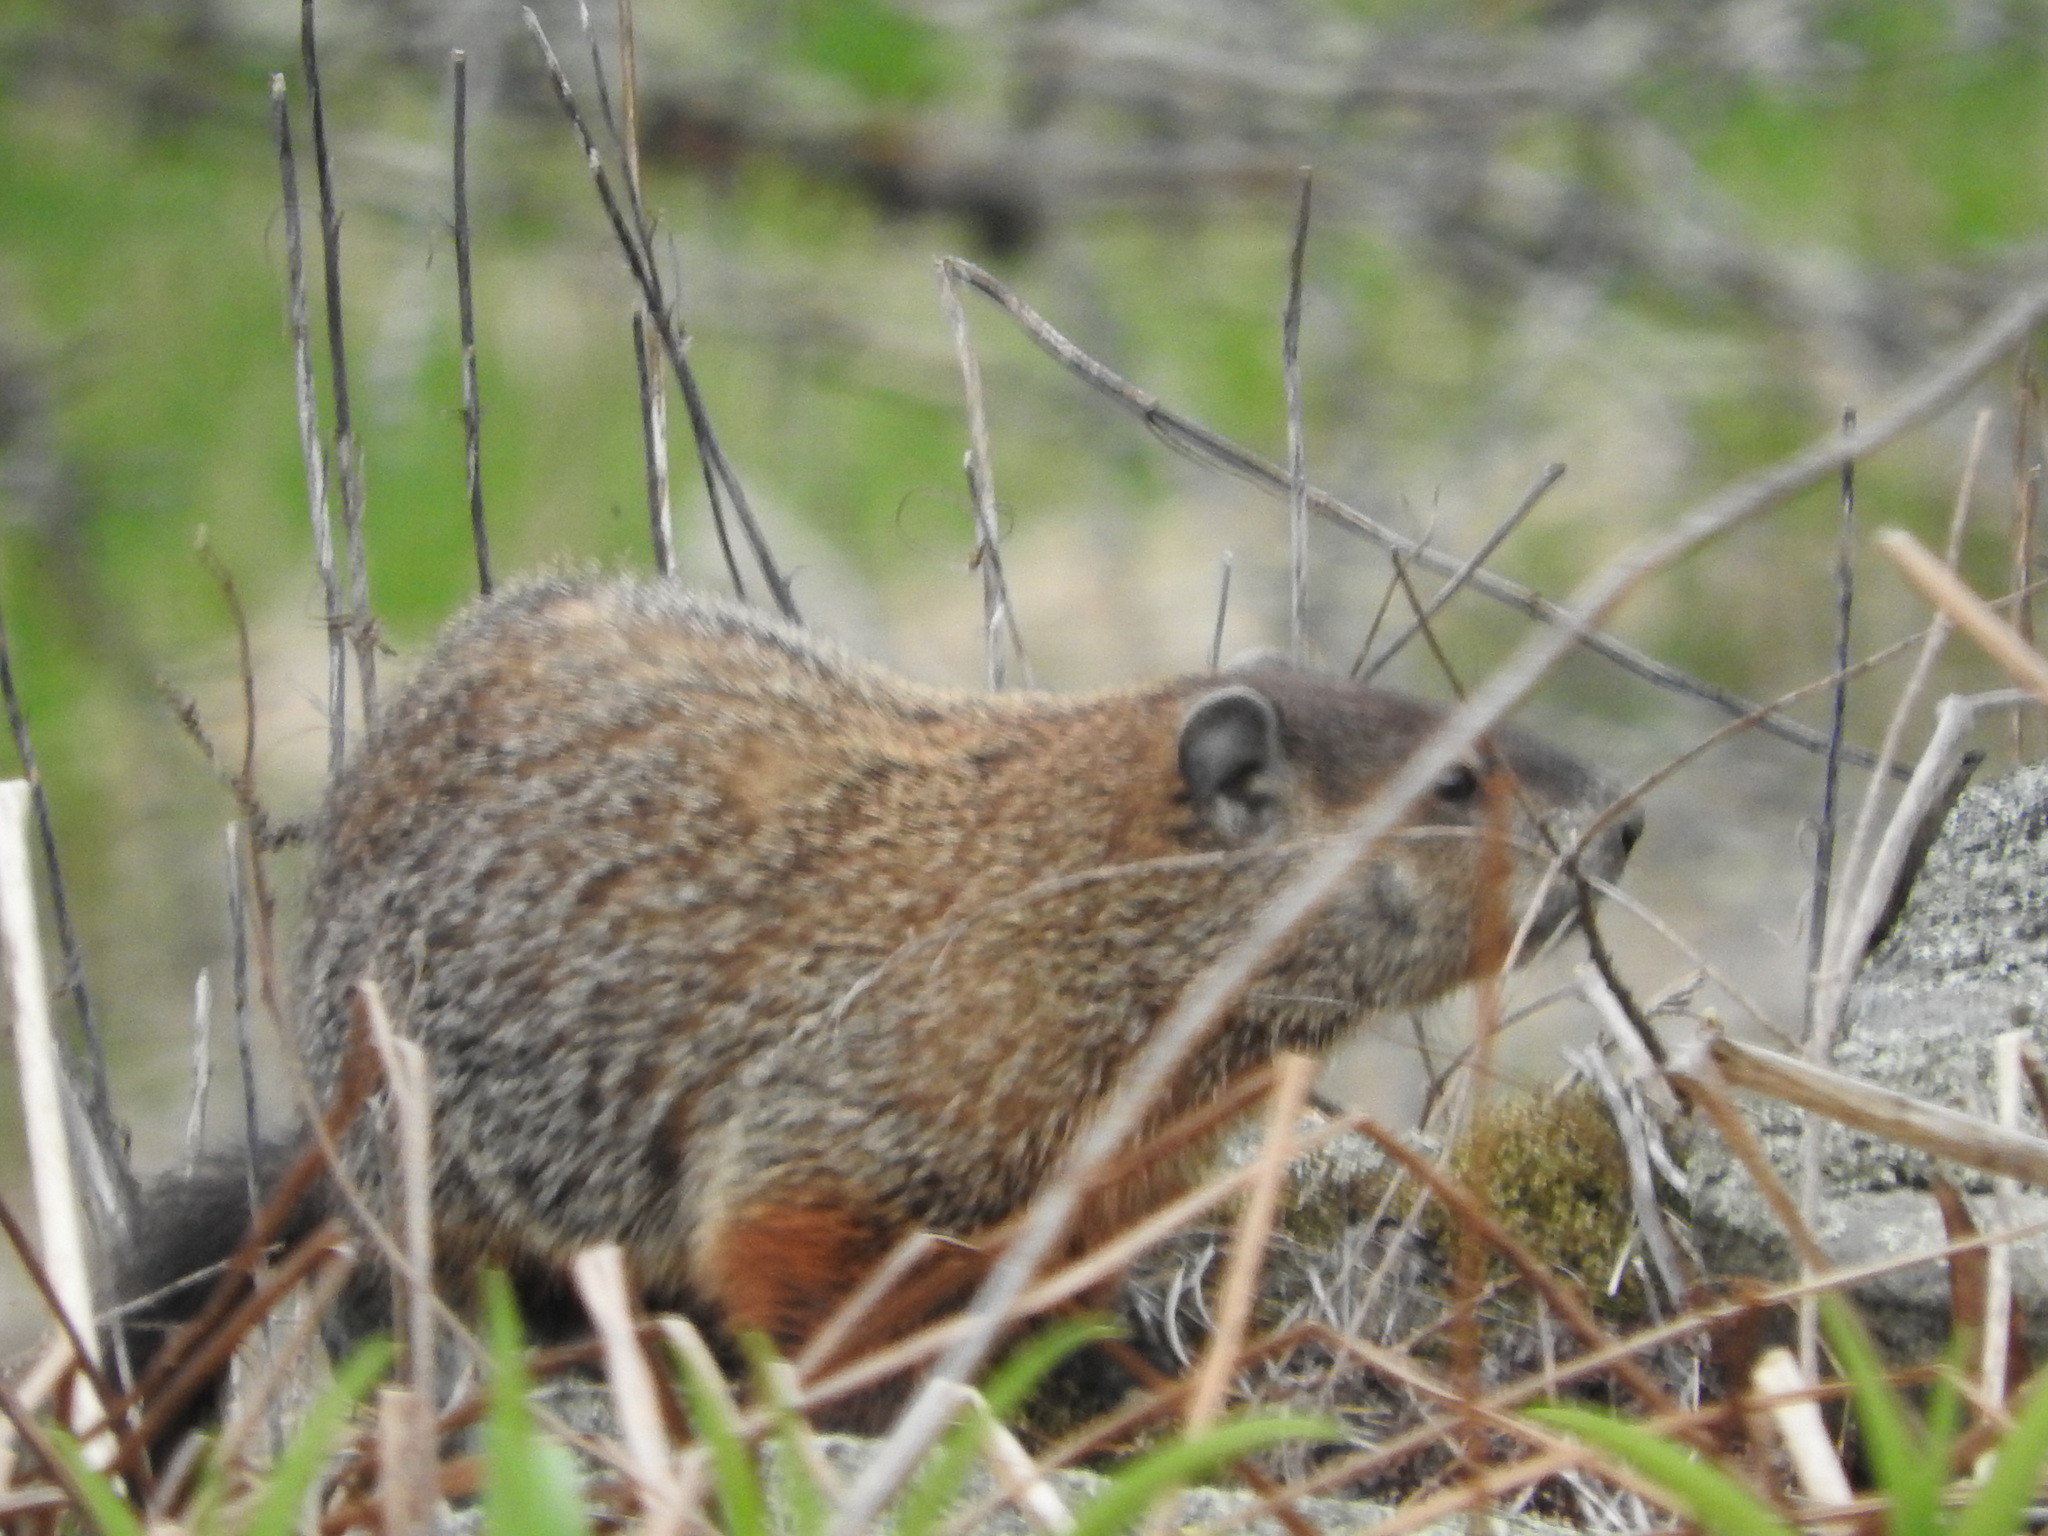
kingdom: Animalia
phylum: Chordata
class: Mammalia
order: Rodentia
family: Sciuridae
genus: Marmota
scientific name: Marmota monax
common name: Groundhog
